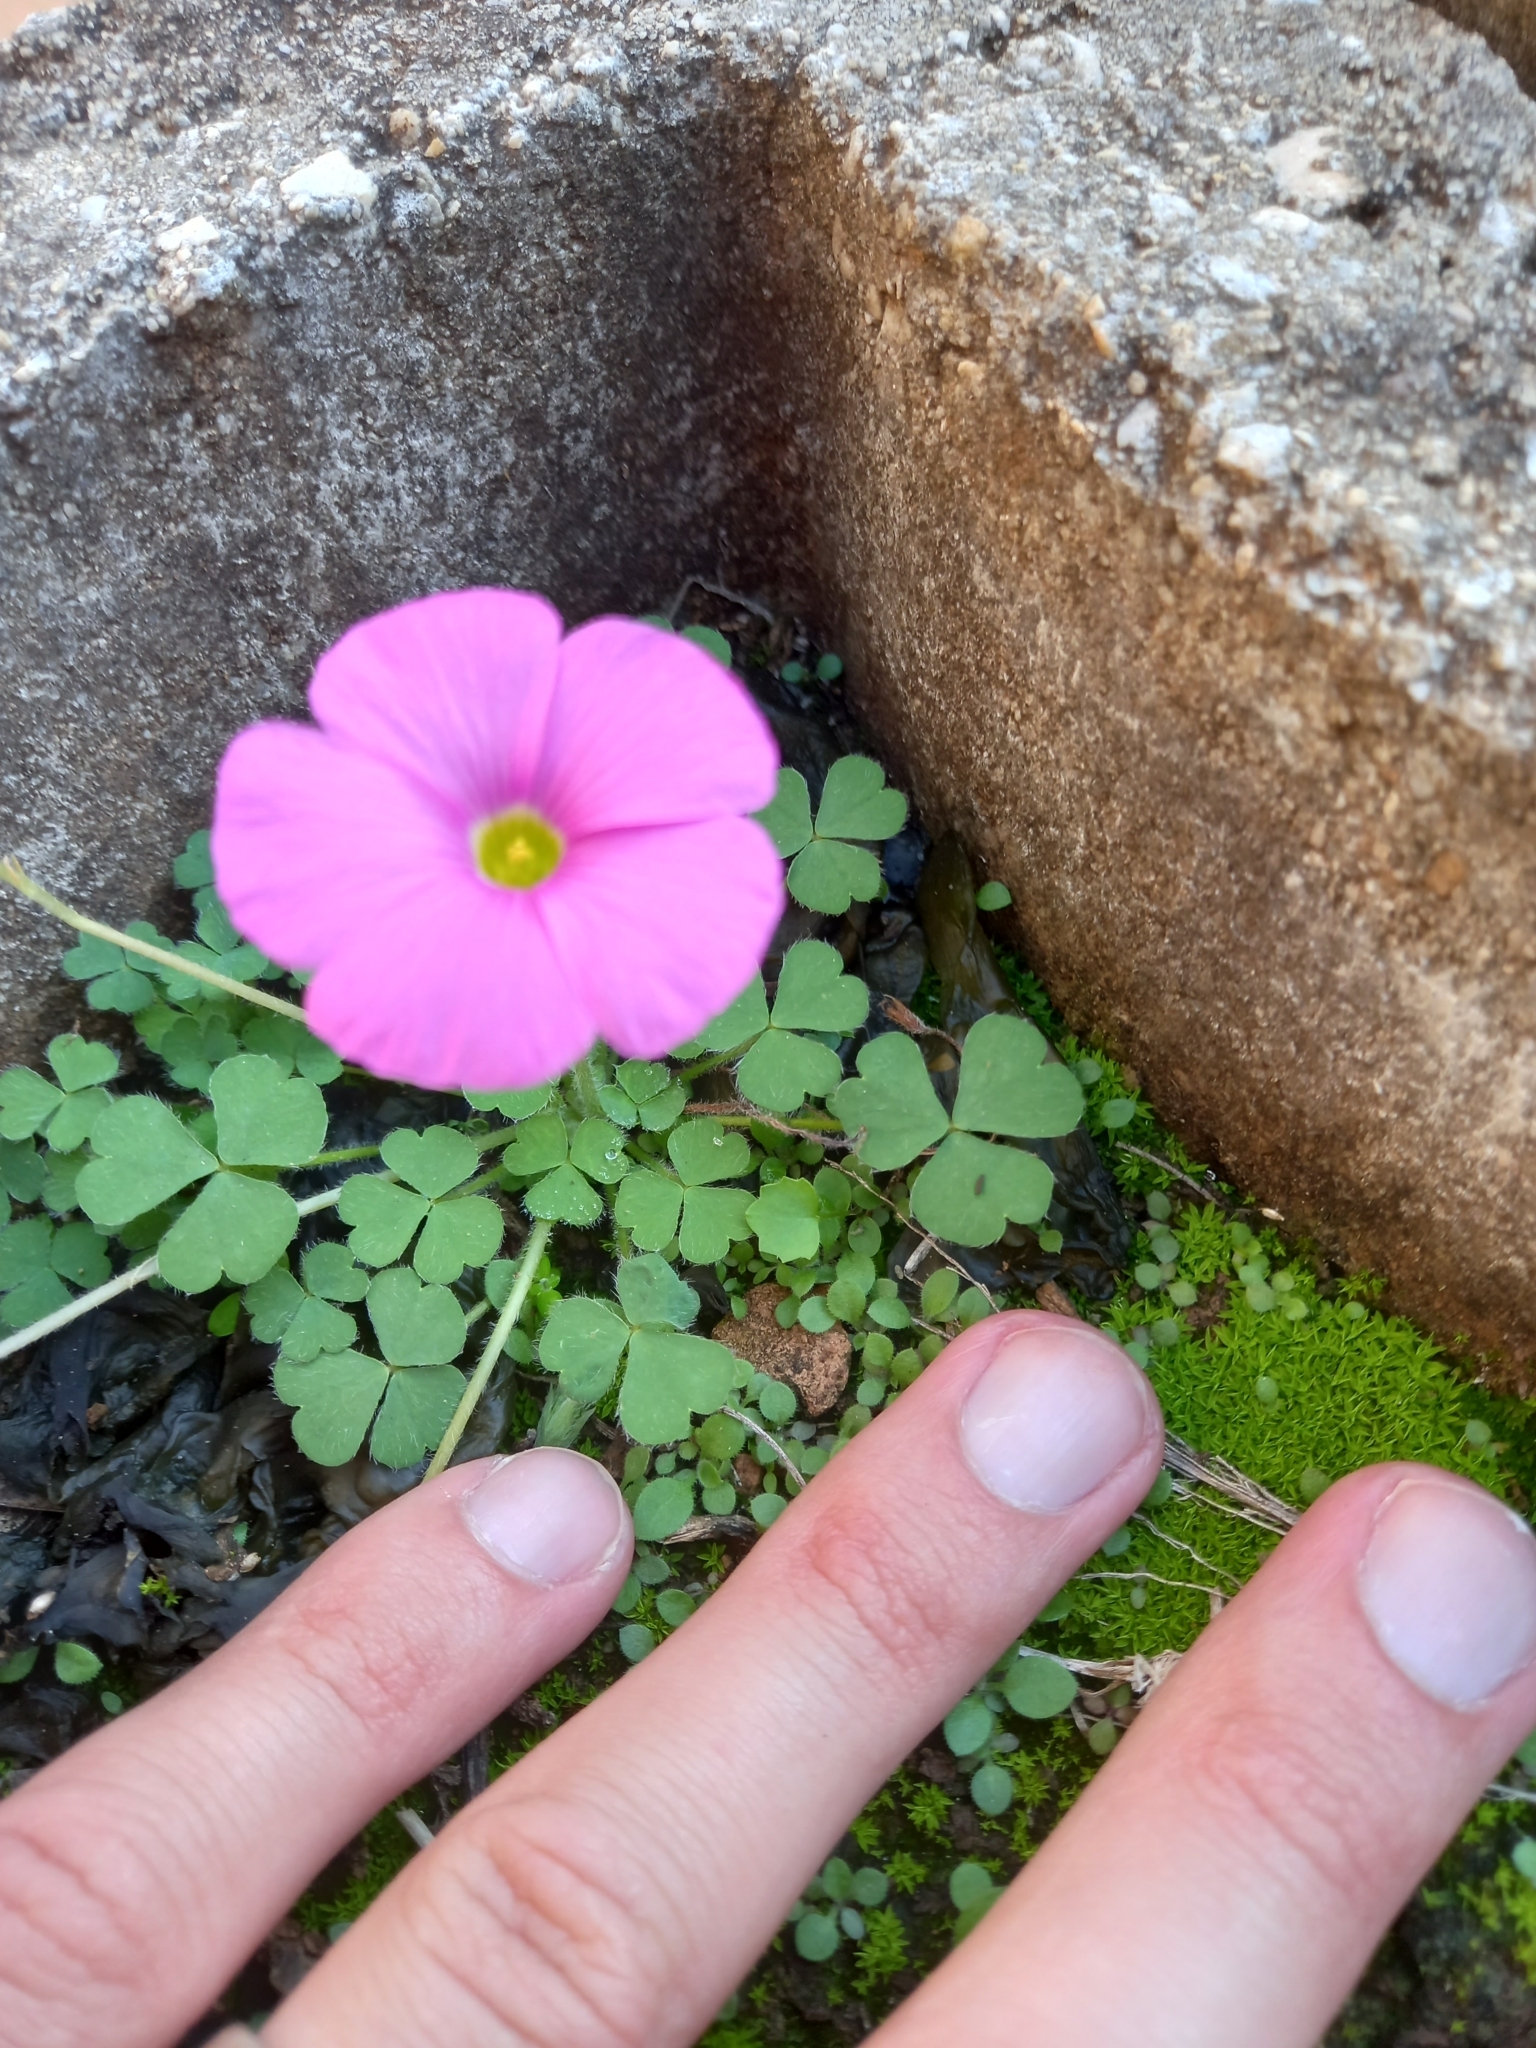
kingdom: Plantae
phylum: Tracheophyta
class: Magnoliopsida
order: Oxalidales
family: Oxalidaceae
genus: Oxalis
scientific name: Oxalis imbricata
